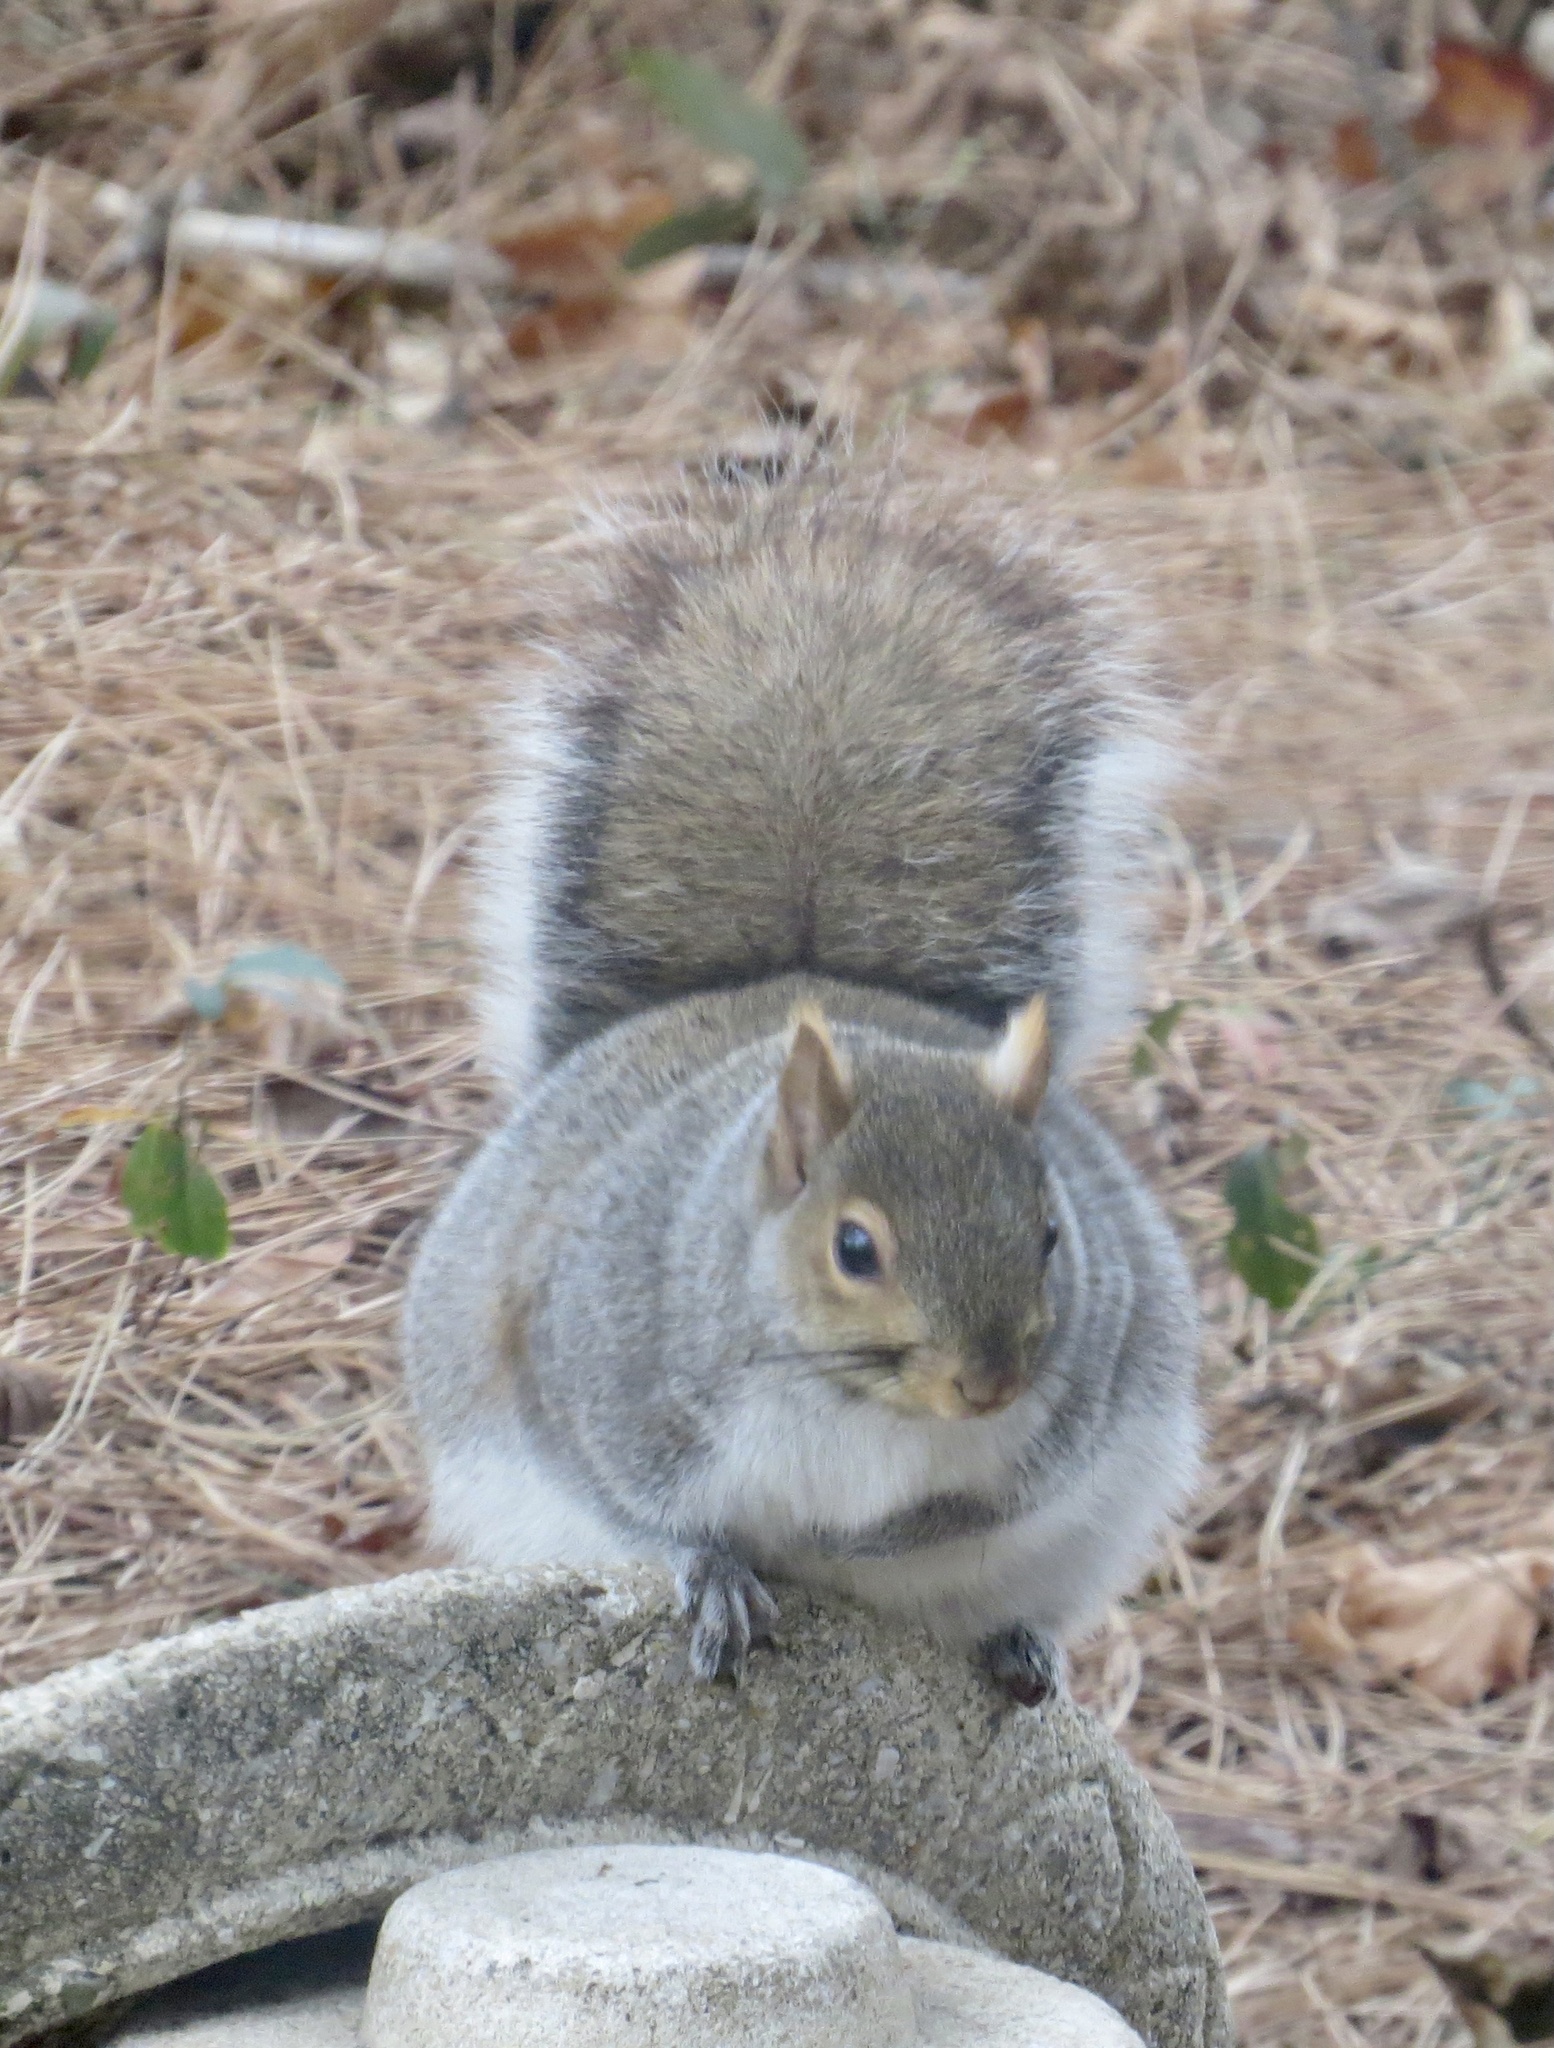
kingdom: Animalia
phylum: Chordata
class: Mammalia
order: Rodentia
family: Sciuridae
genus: Sciurus
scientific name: Sciurus carolinensis
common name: Eastern gray squirrel
